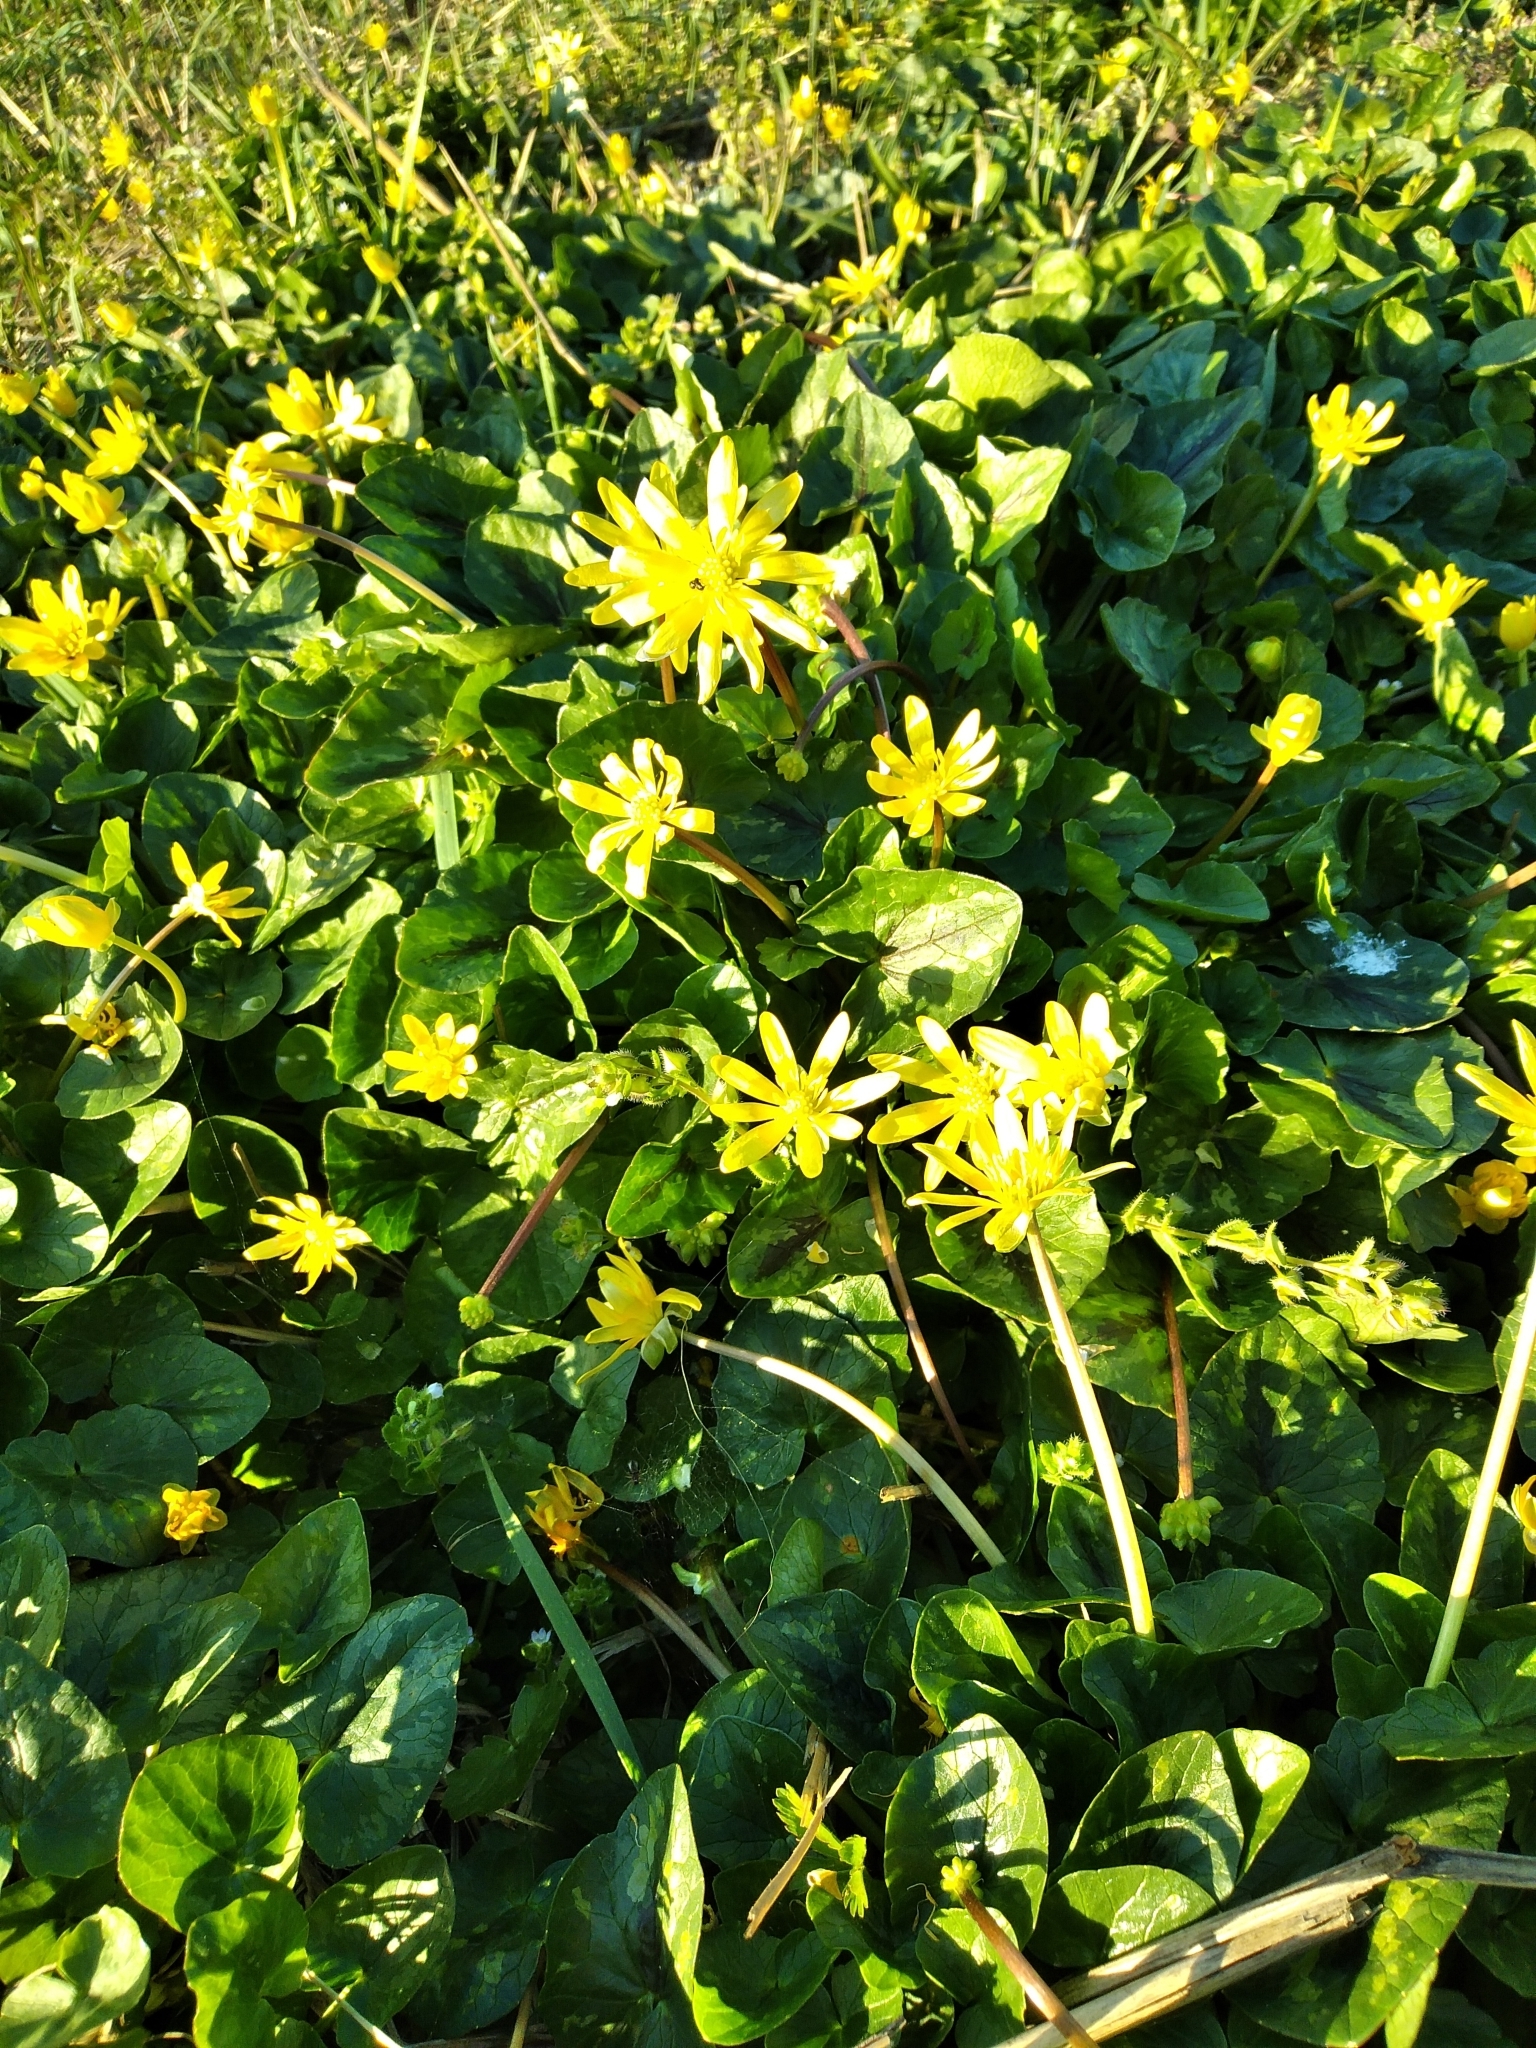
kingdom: Plantae
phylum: Tracheophyta
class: Magnoliopsida
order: Ranunculales
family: Ranunculaceae
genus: Ficaria
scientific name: Ficaria verna
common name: Lesser celandine
